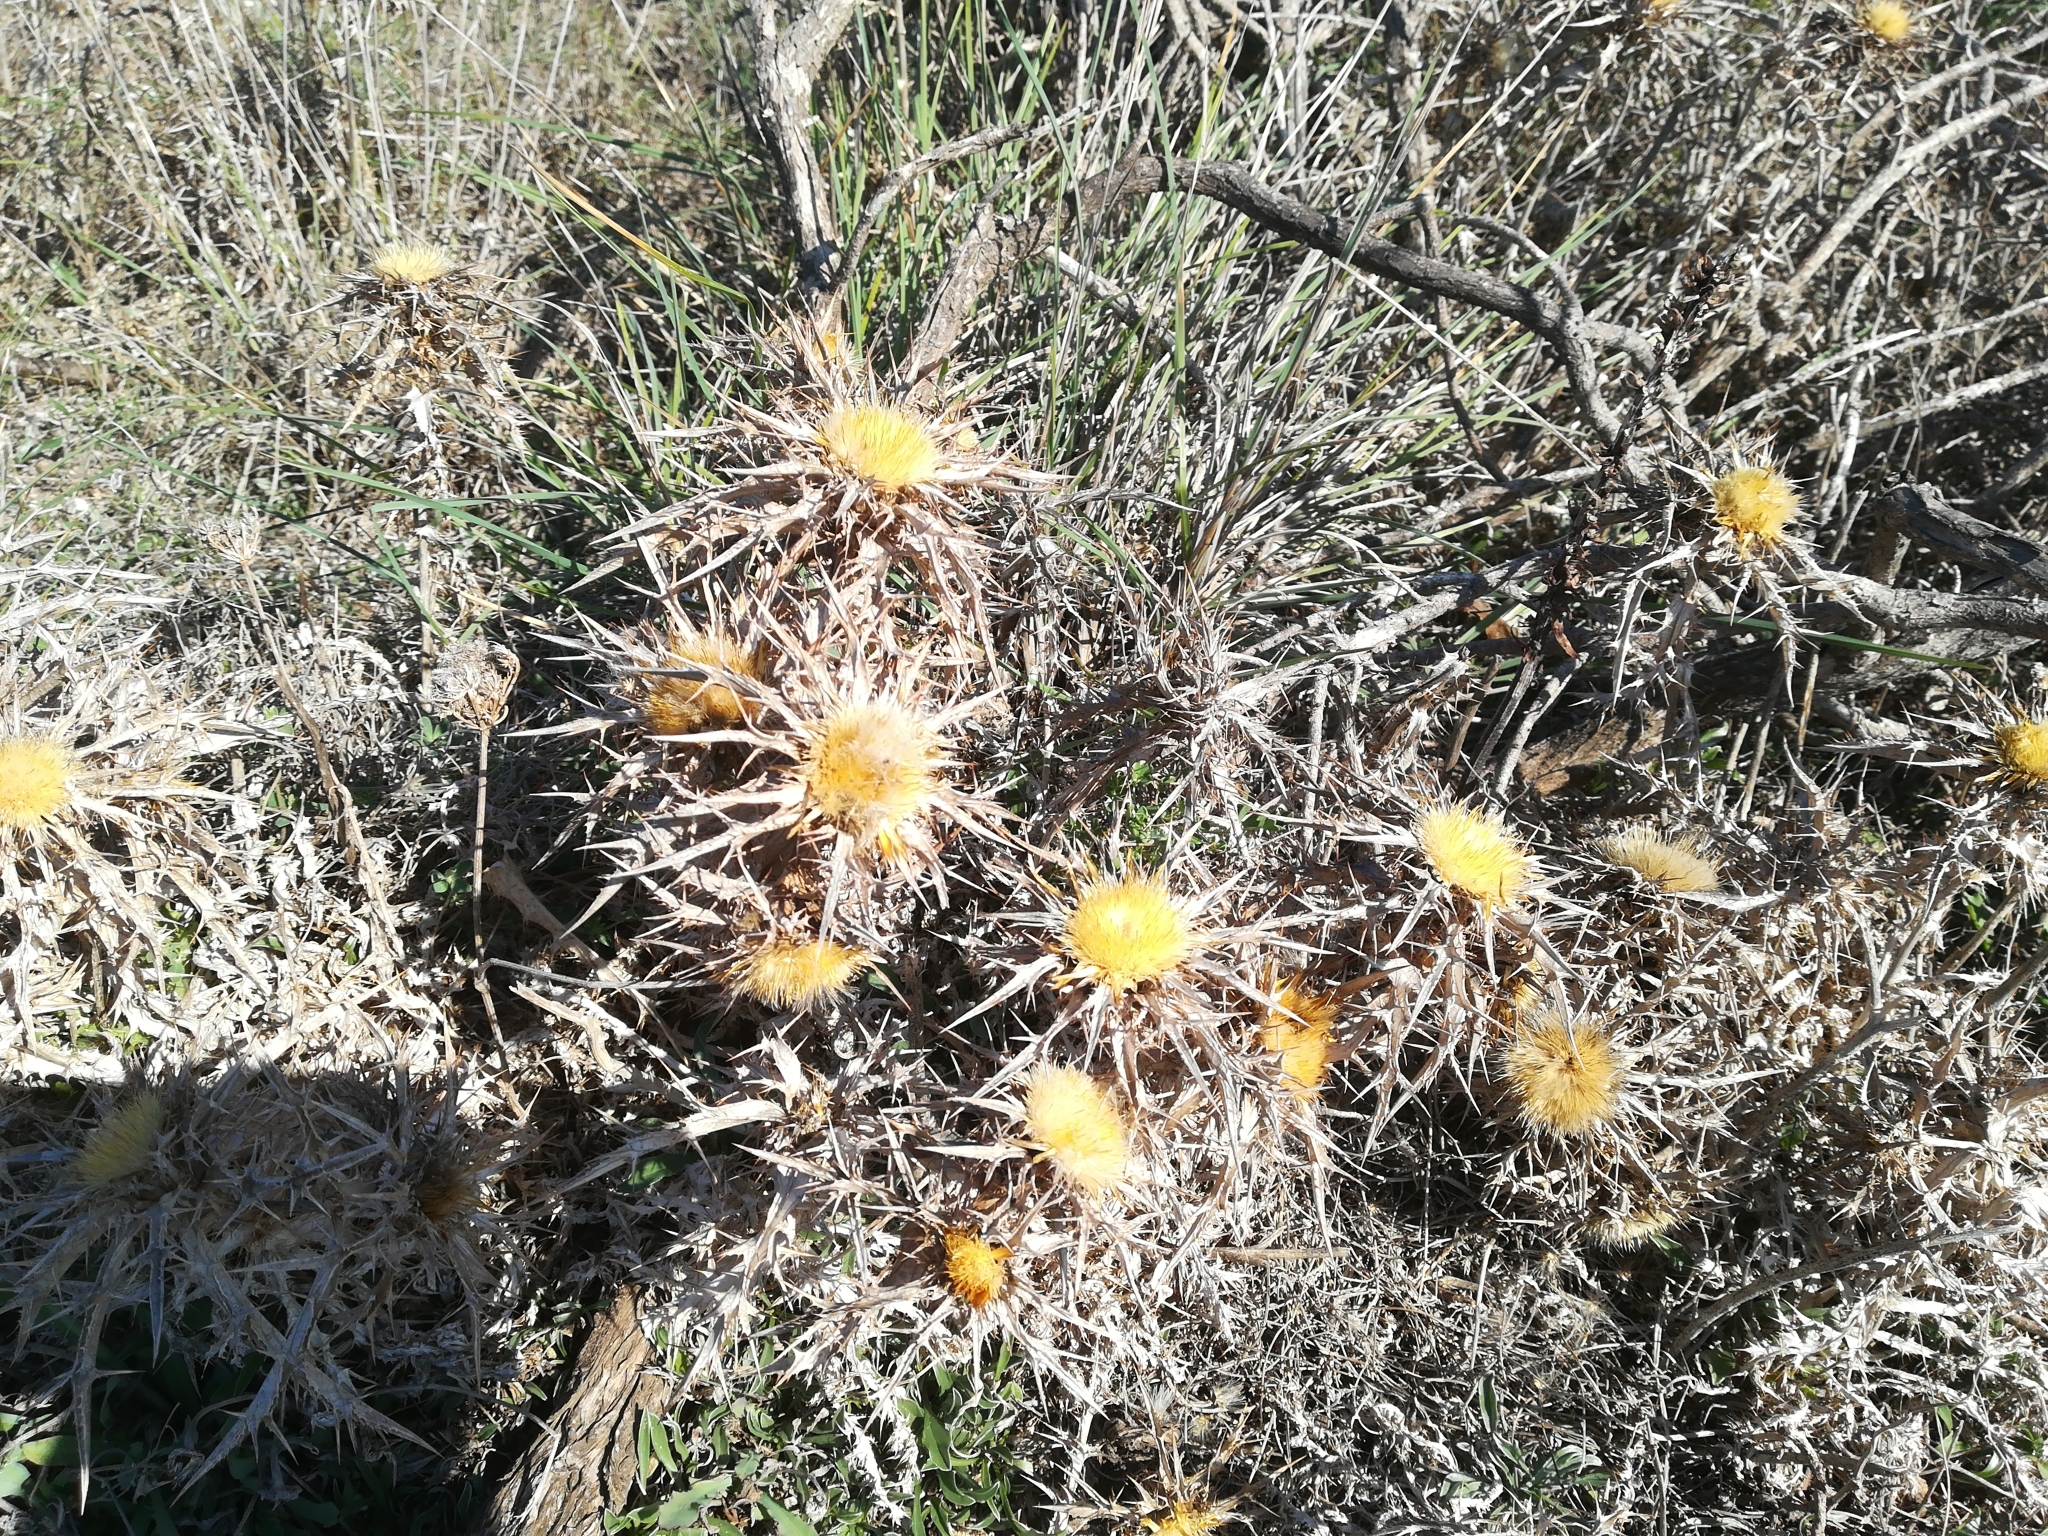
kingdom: Plantae
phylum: Tracheophyta
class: Magnoliopsida
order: Asterales
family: Asteraceae
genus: Carlina
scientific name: Carlina involucrata
